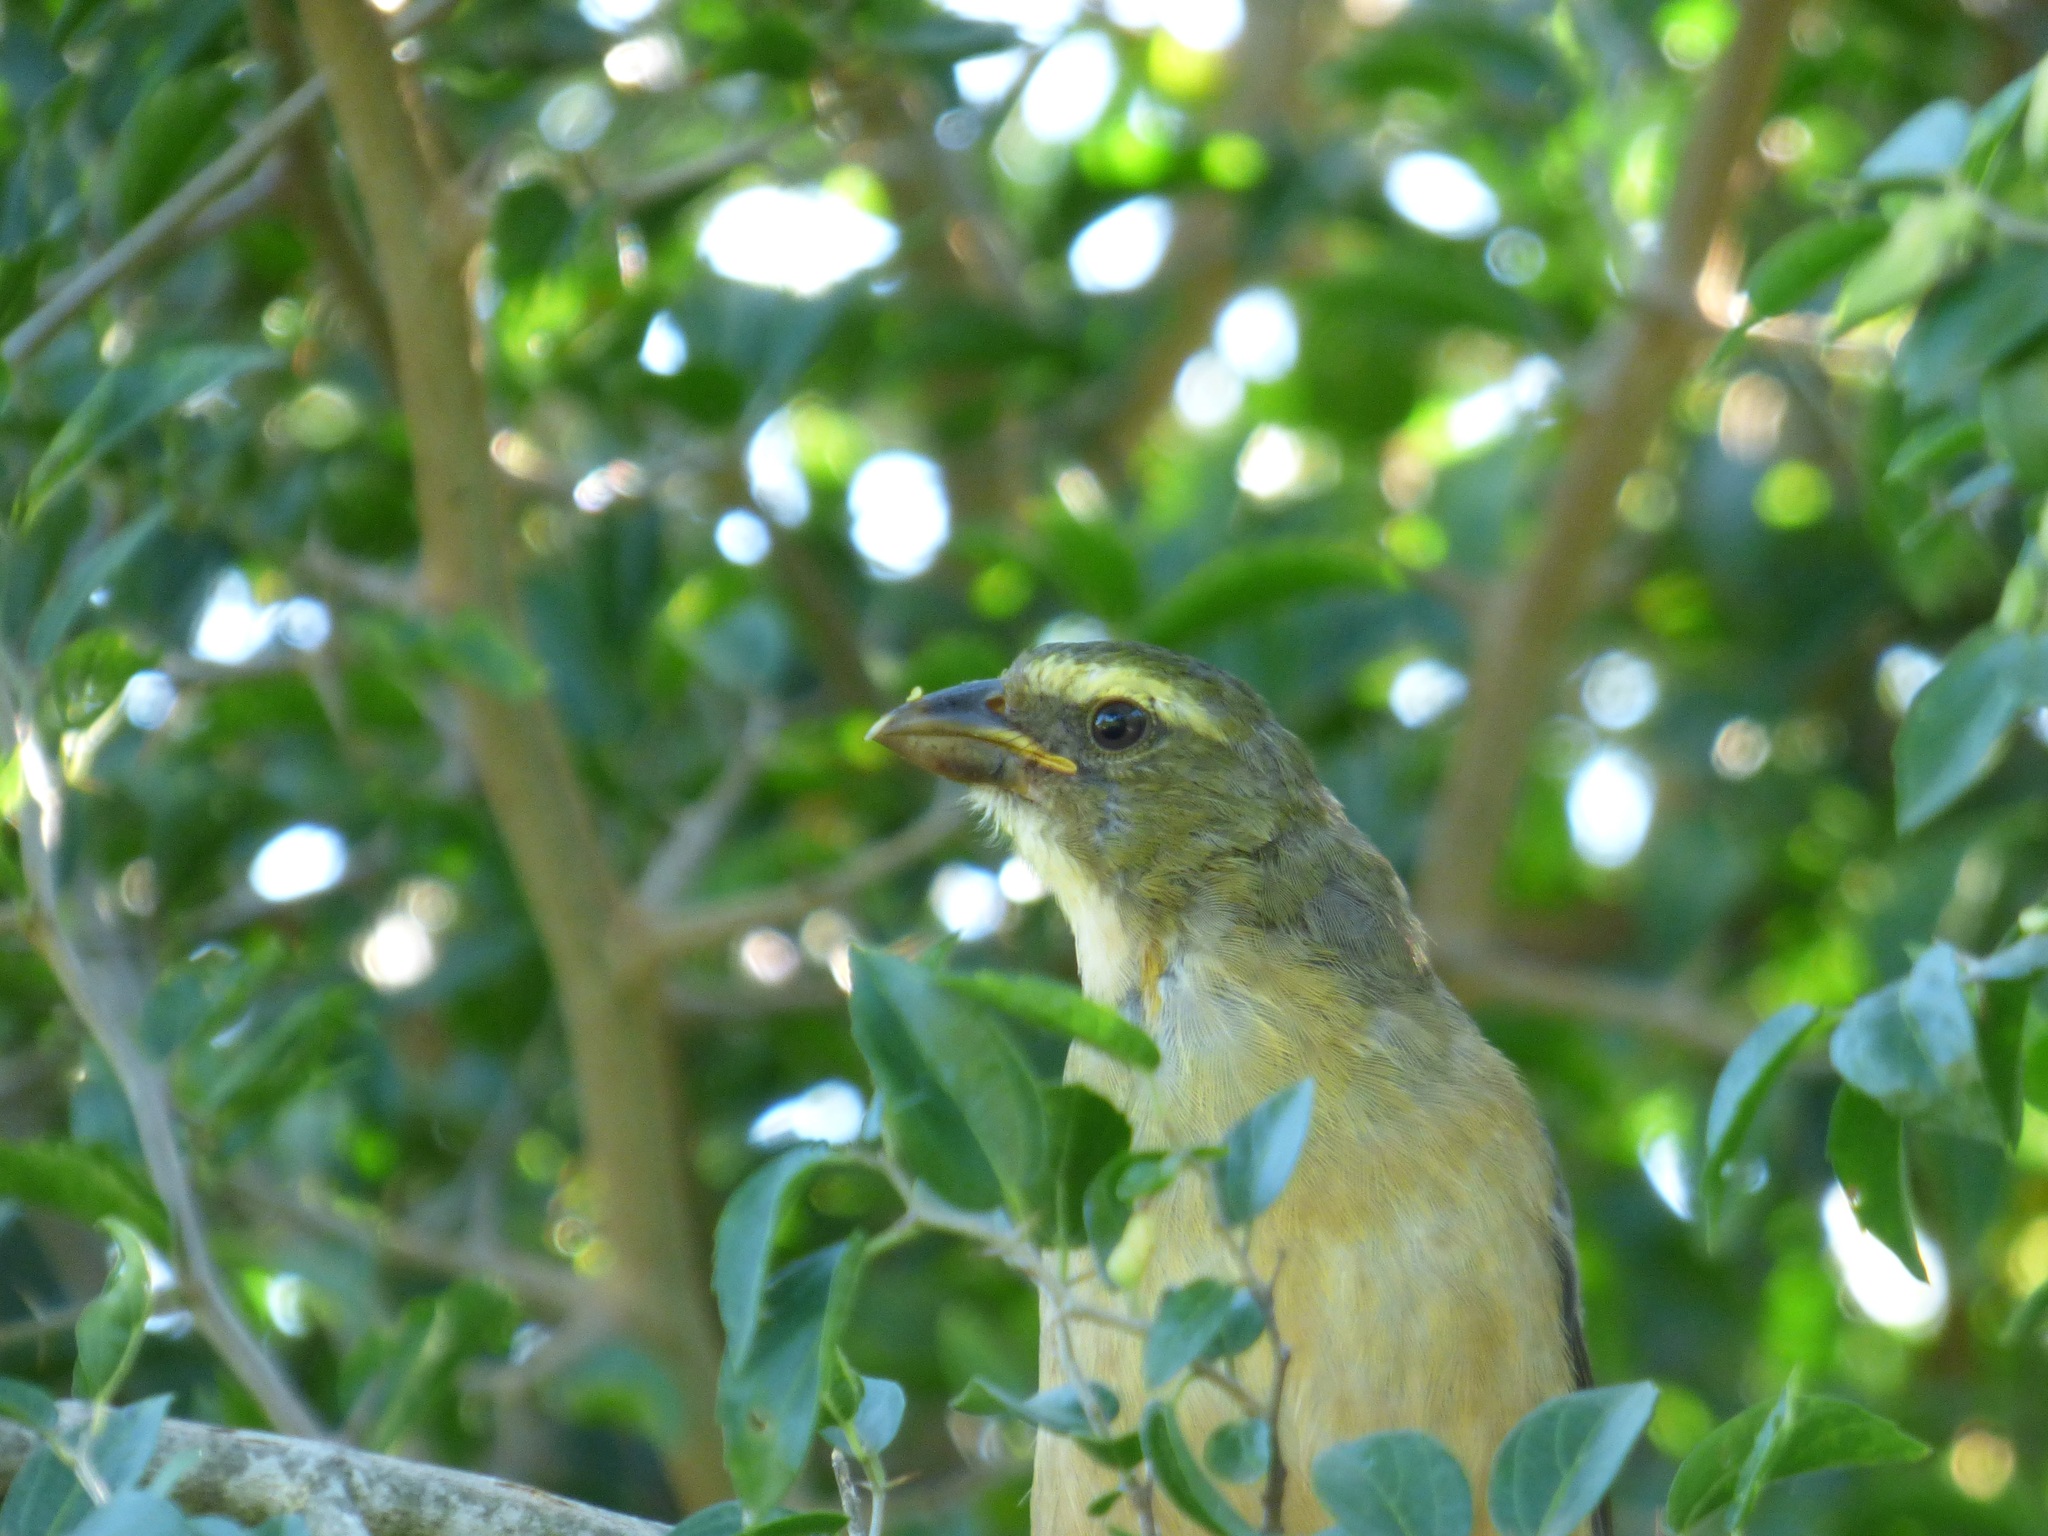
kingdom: Animalia
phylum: Chordata
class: Aves
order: Passeriformes
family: Thraupidae
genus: Saltator
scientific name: Saltator coerulescens
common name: Grayish saltator
